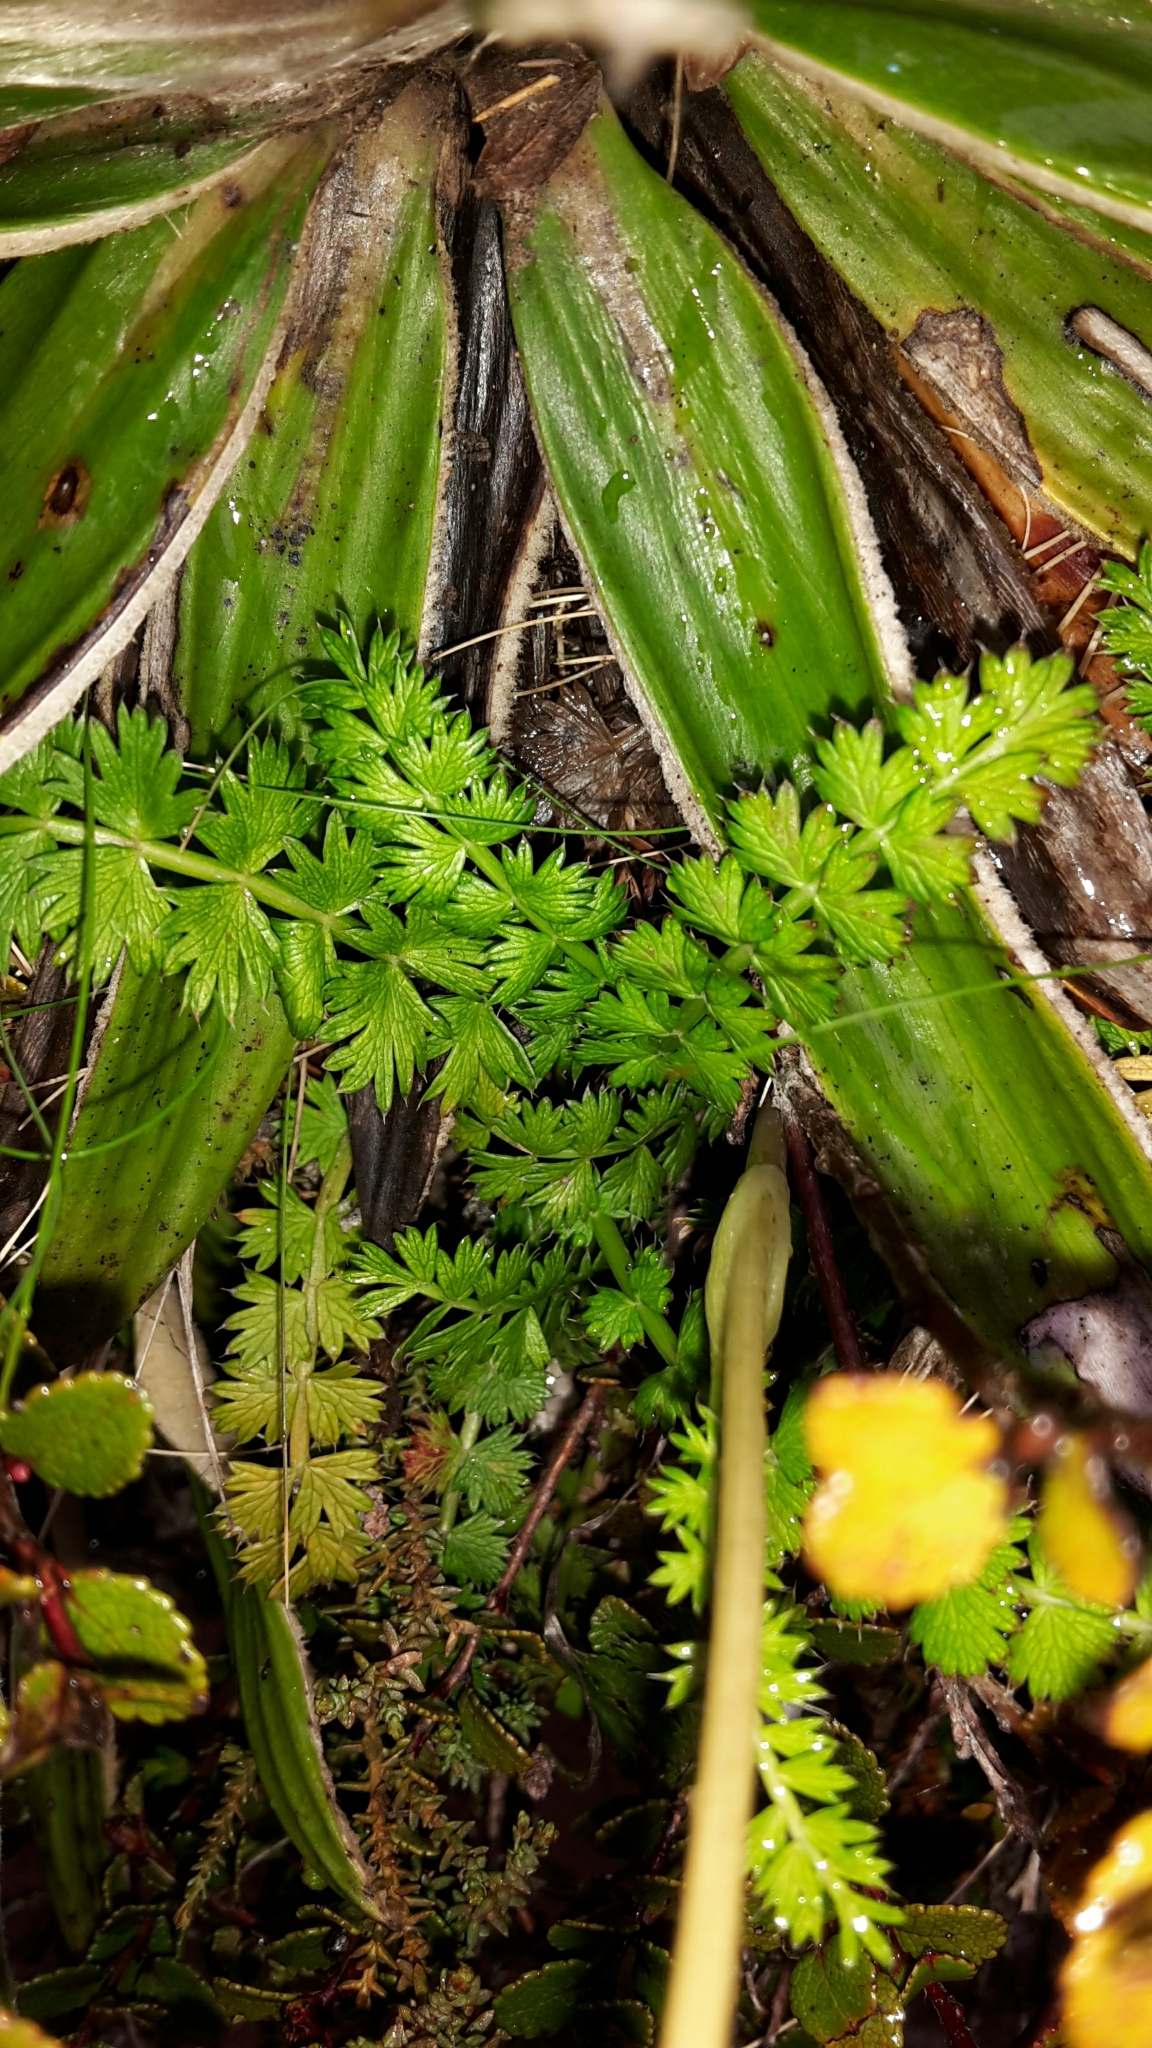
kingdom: Plantae
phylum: Tracheophyta
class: Magnoliopsida
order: Apiales
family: Apiaceae
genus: Anisotome
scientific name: Anisotome aromatica
